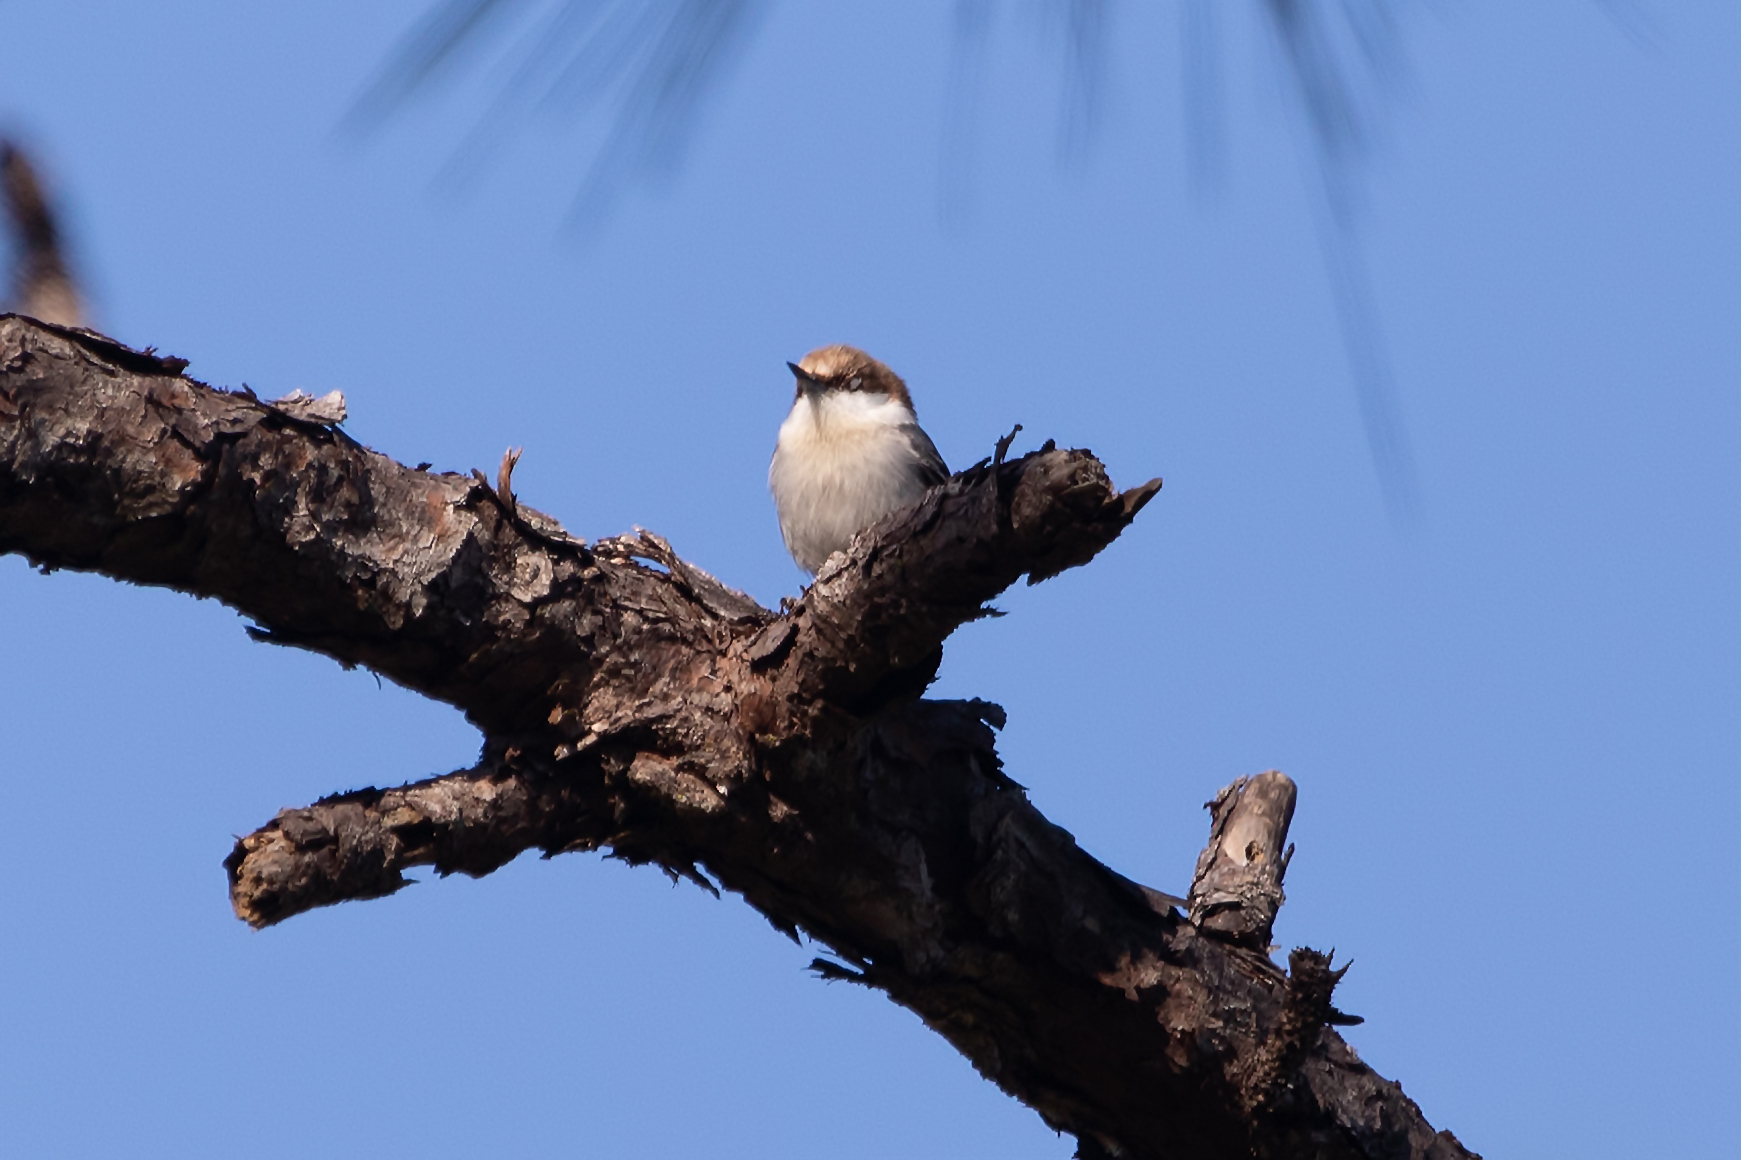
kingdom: Animalia
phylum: Chordata
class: Aves
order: Passeriformes
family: Sittidae
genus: Sitta
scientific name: Sitta pusilla
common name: Brown-headed nuthatch
